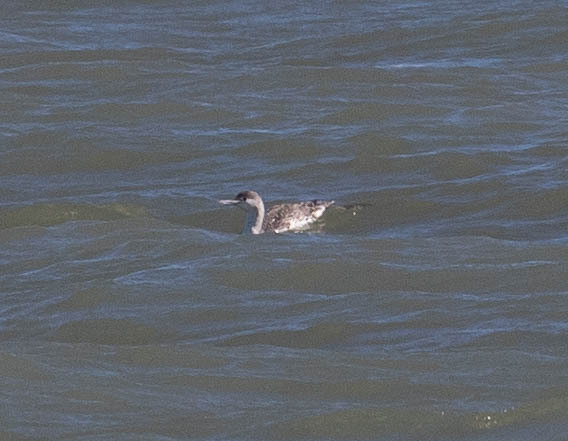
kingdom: Animalia
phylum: Chordata
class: Aves
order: Gaviiformes
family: Gaviidae
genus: Gavia
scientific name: Gavia stellata
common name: Red-throated loon
